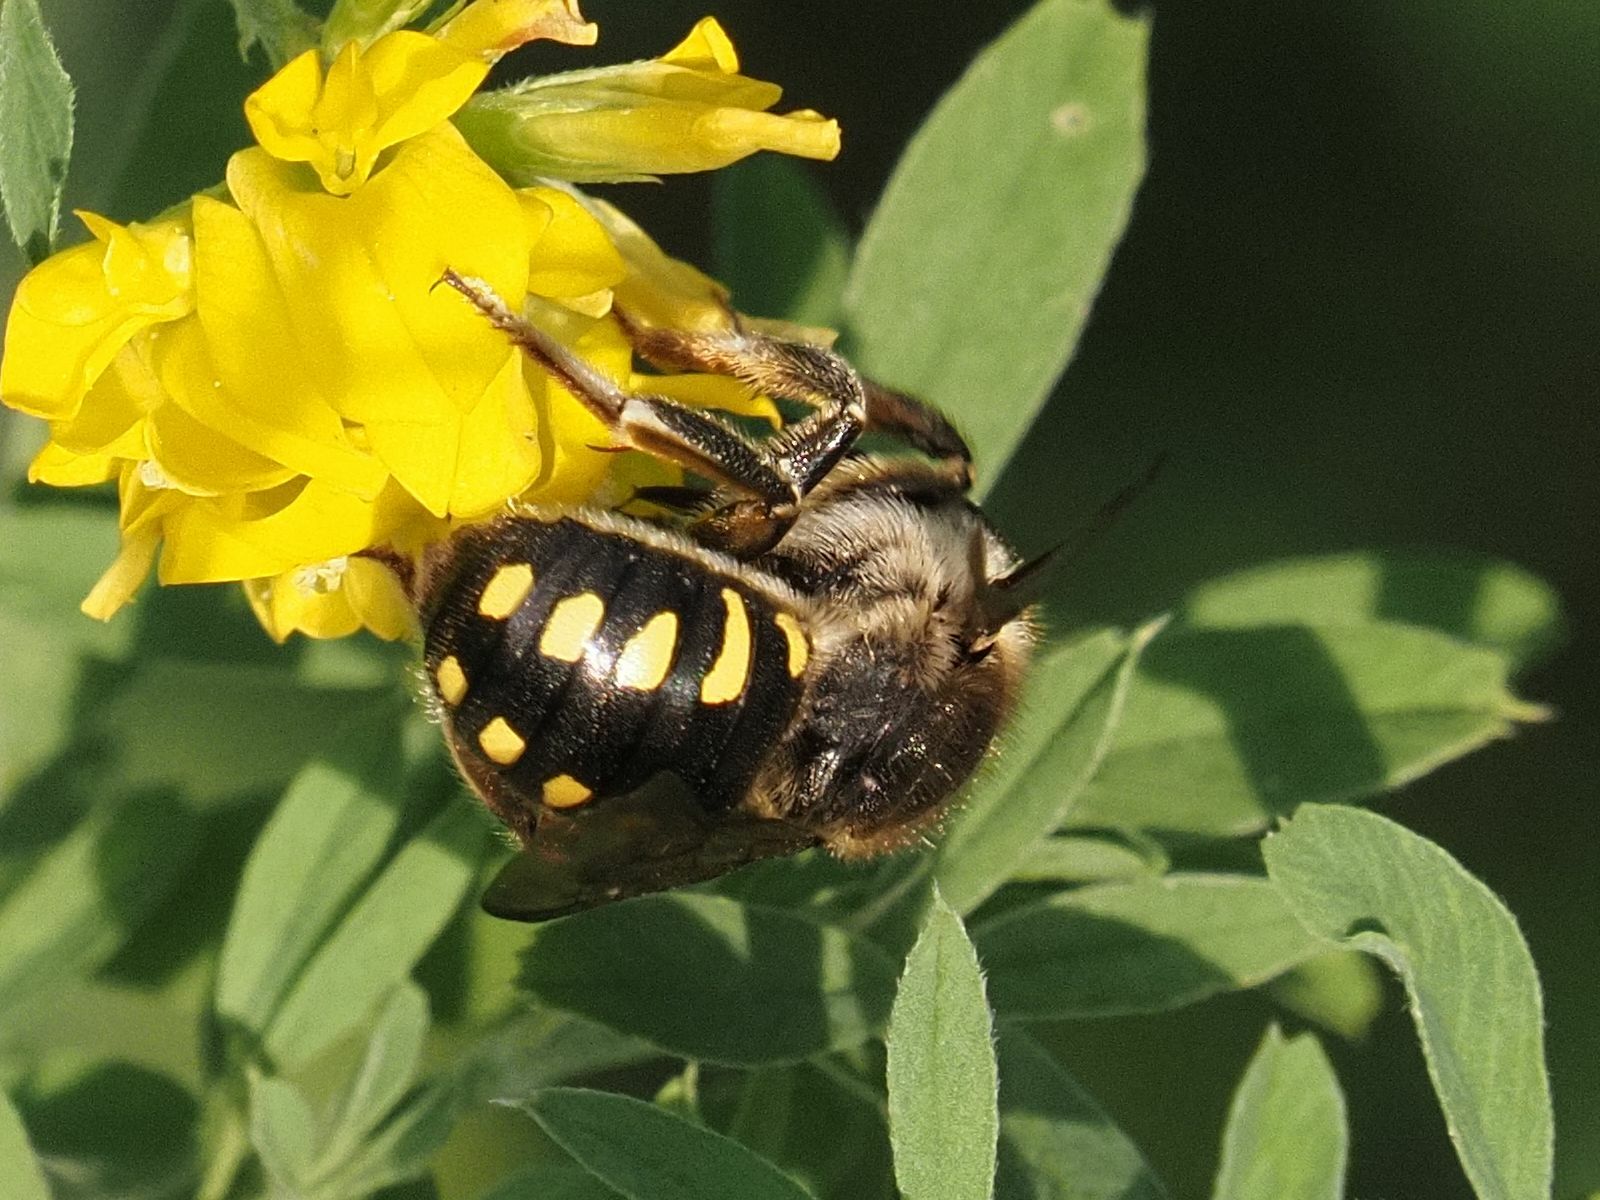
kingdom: Animalia
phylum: Arthropoda
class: Insecta
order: Hymenoptera
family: Megachilidae
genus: Anthidium
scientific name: Anthidium septemspinosum
